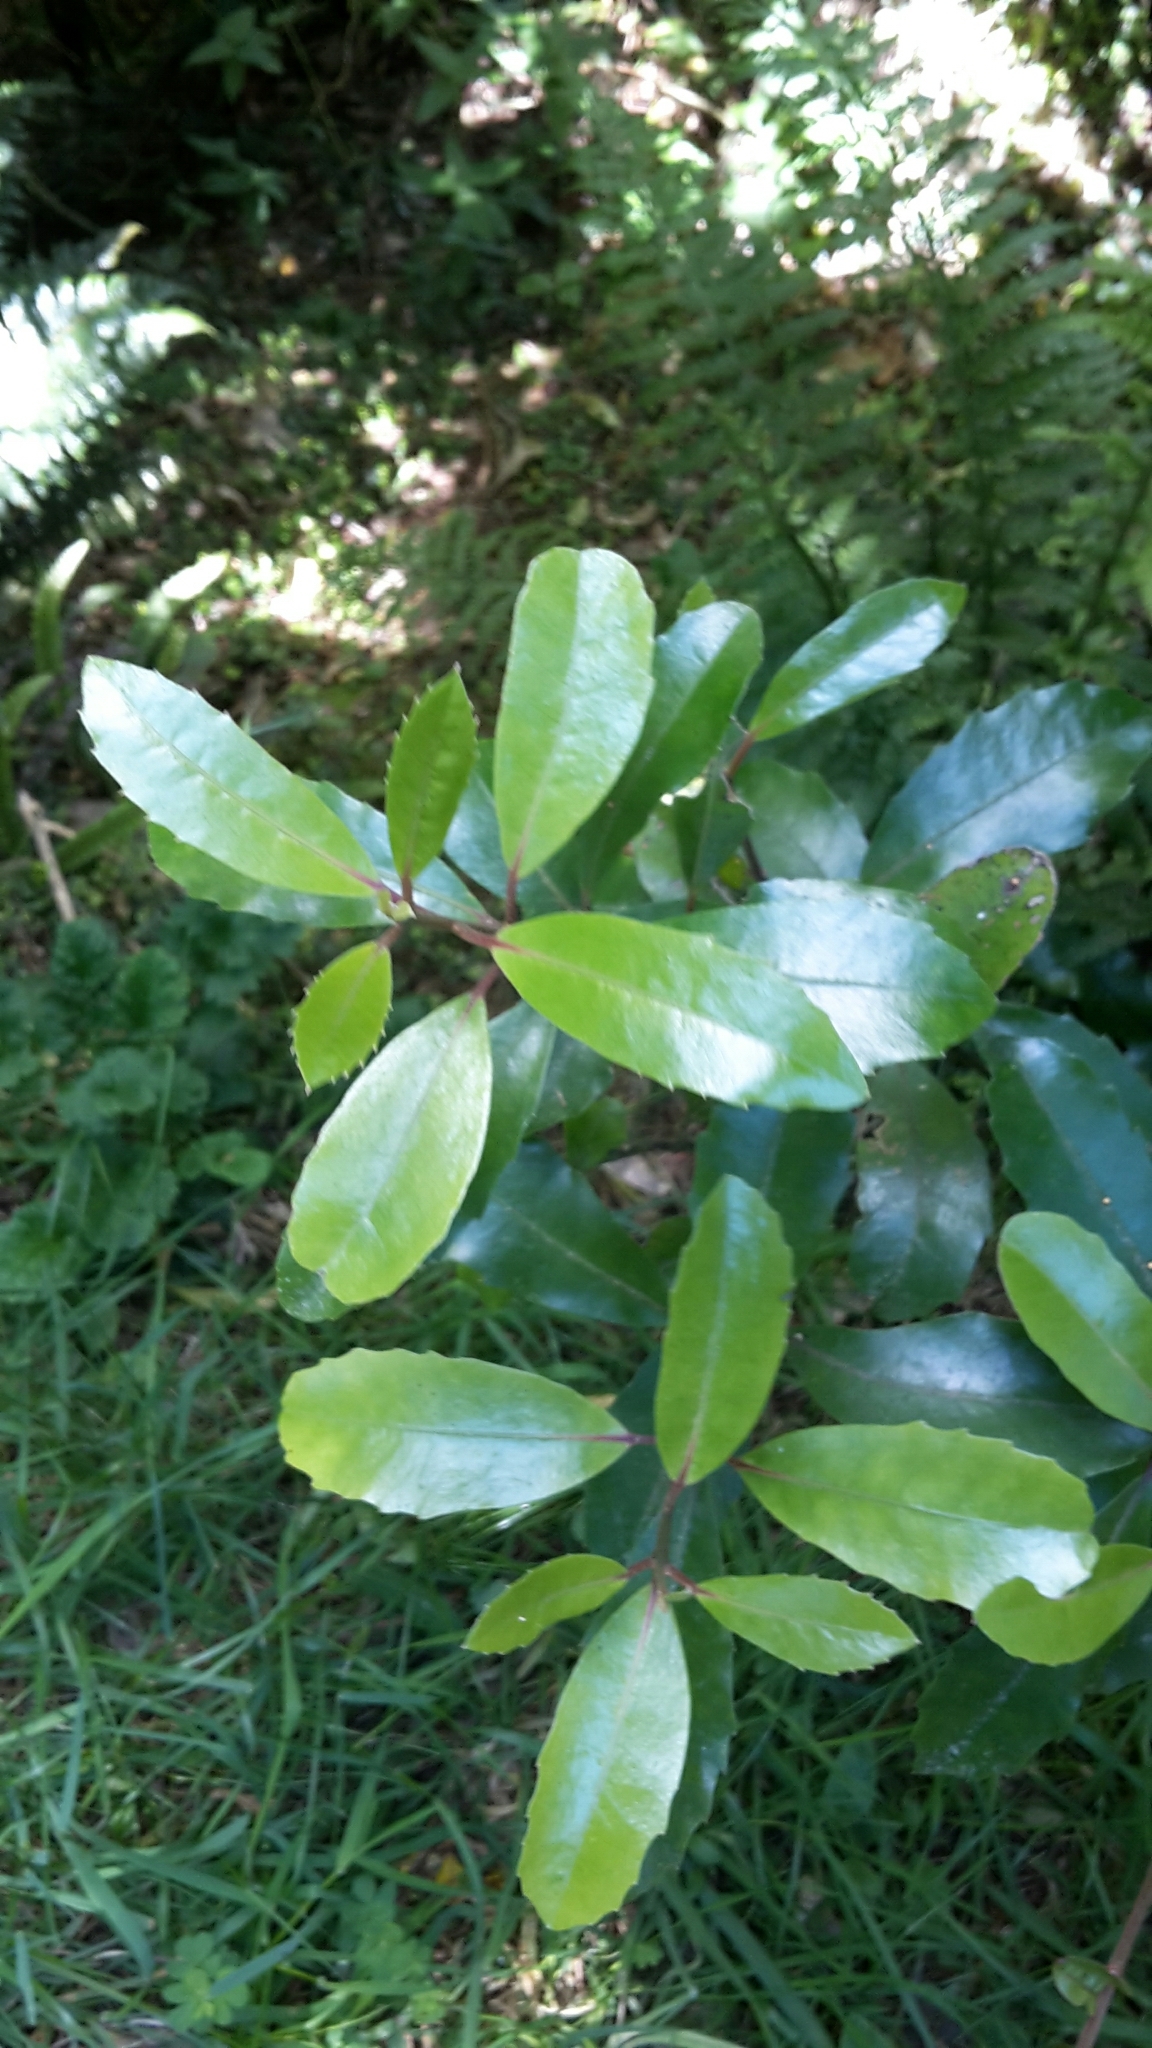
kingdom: Plantae
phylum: Tracheophyta
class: Magnoliopsida
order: Laurales
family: Monimiaceae
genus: Hedycarya
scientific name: Hedycarya arborea
